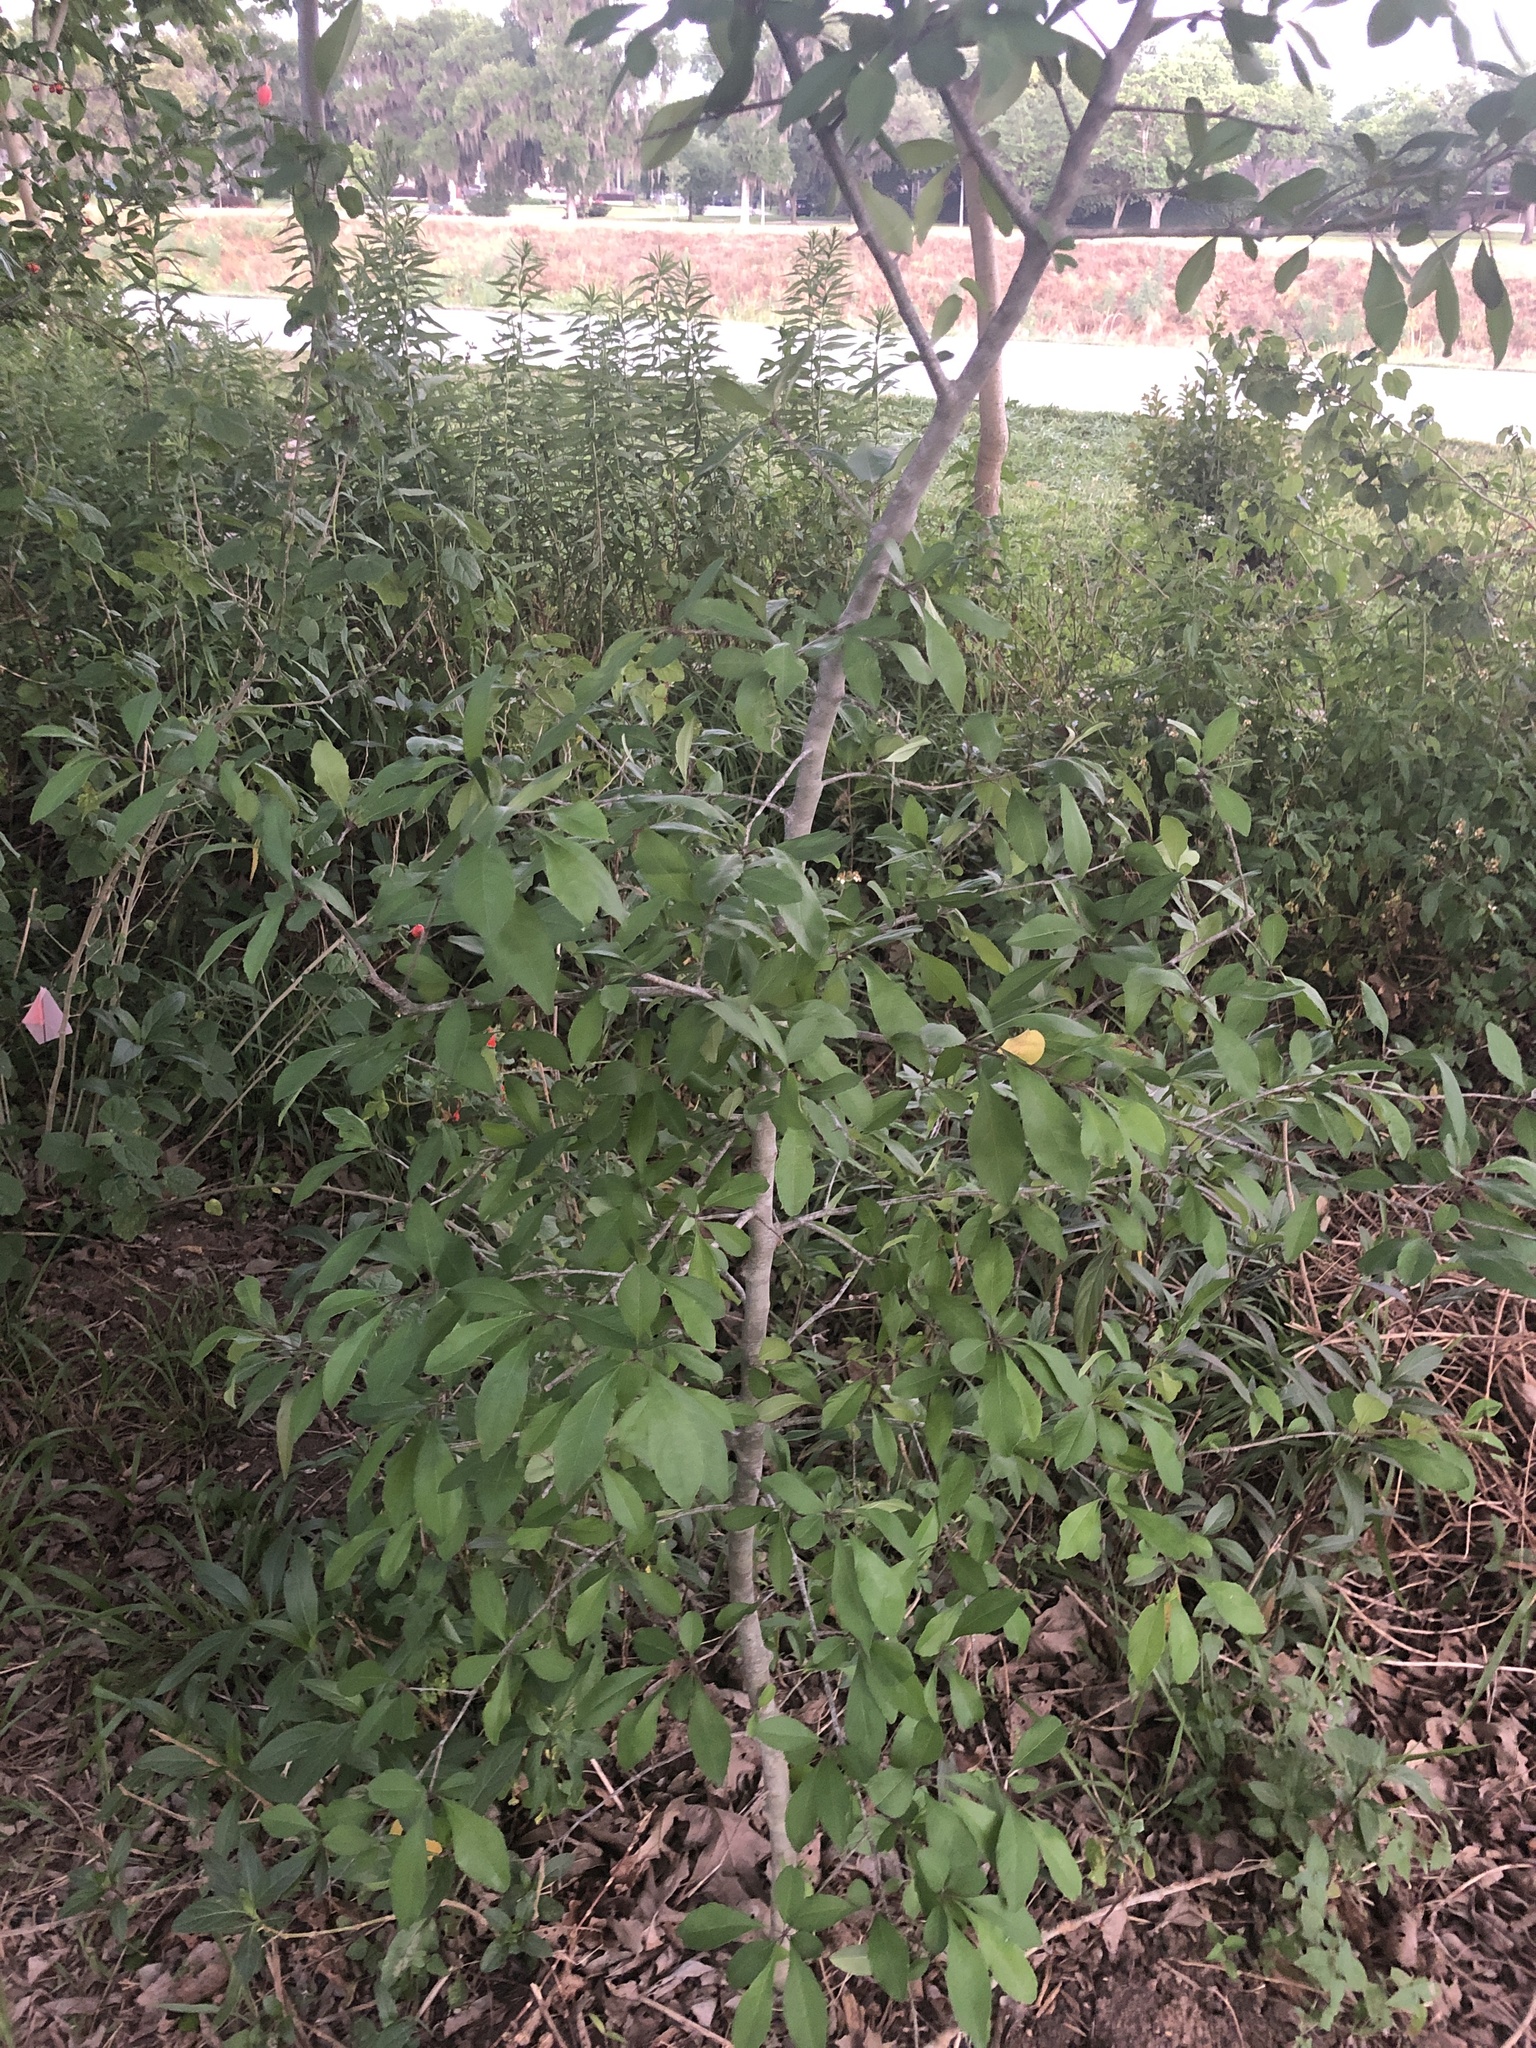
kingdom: Plantae
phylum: Tracheophyta
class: Magnoliopsida
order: Aquifoliales
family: Aquifoliaceae
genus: Ilex
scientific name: Ilex decidua
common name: Possum-haw
